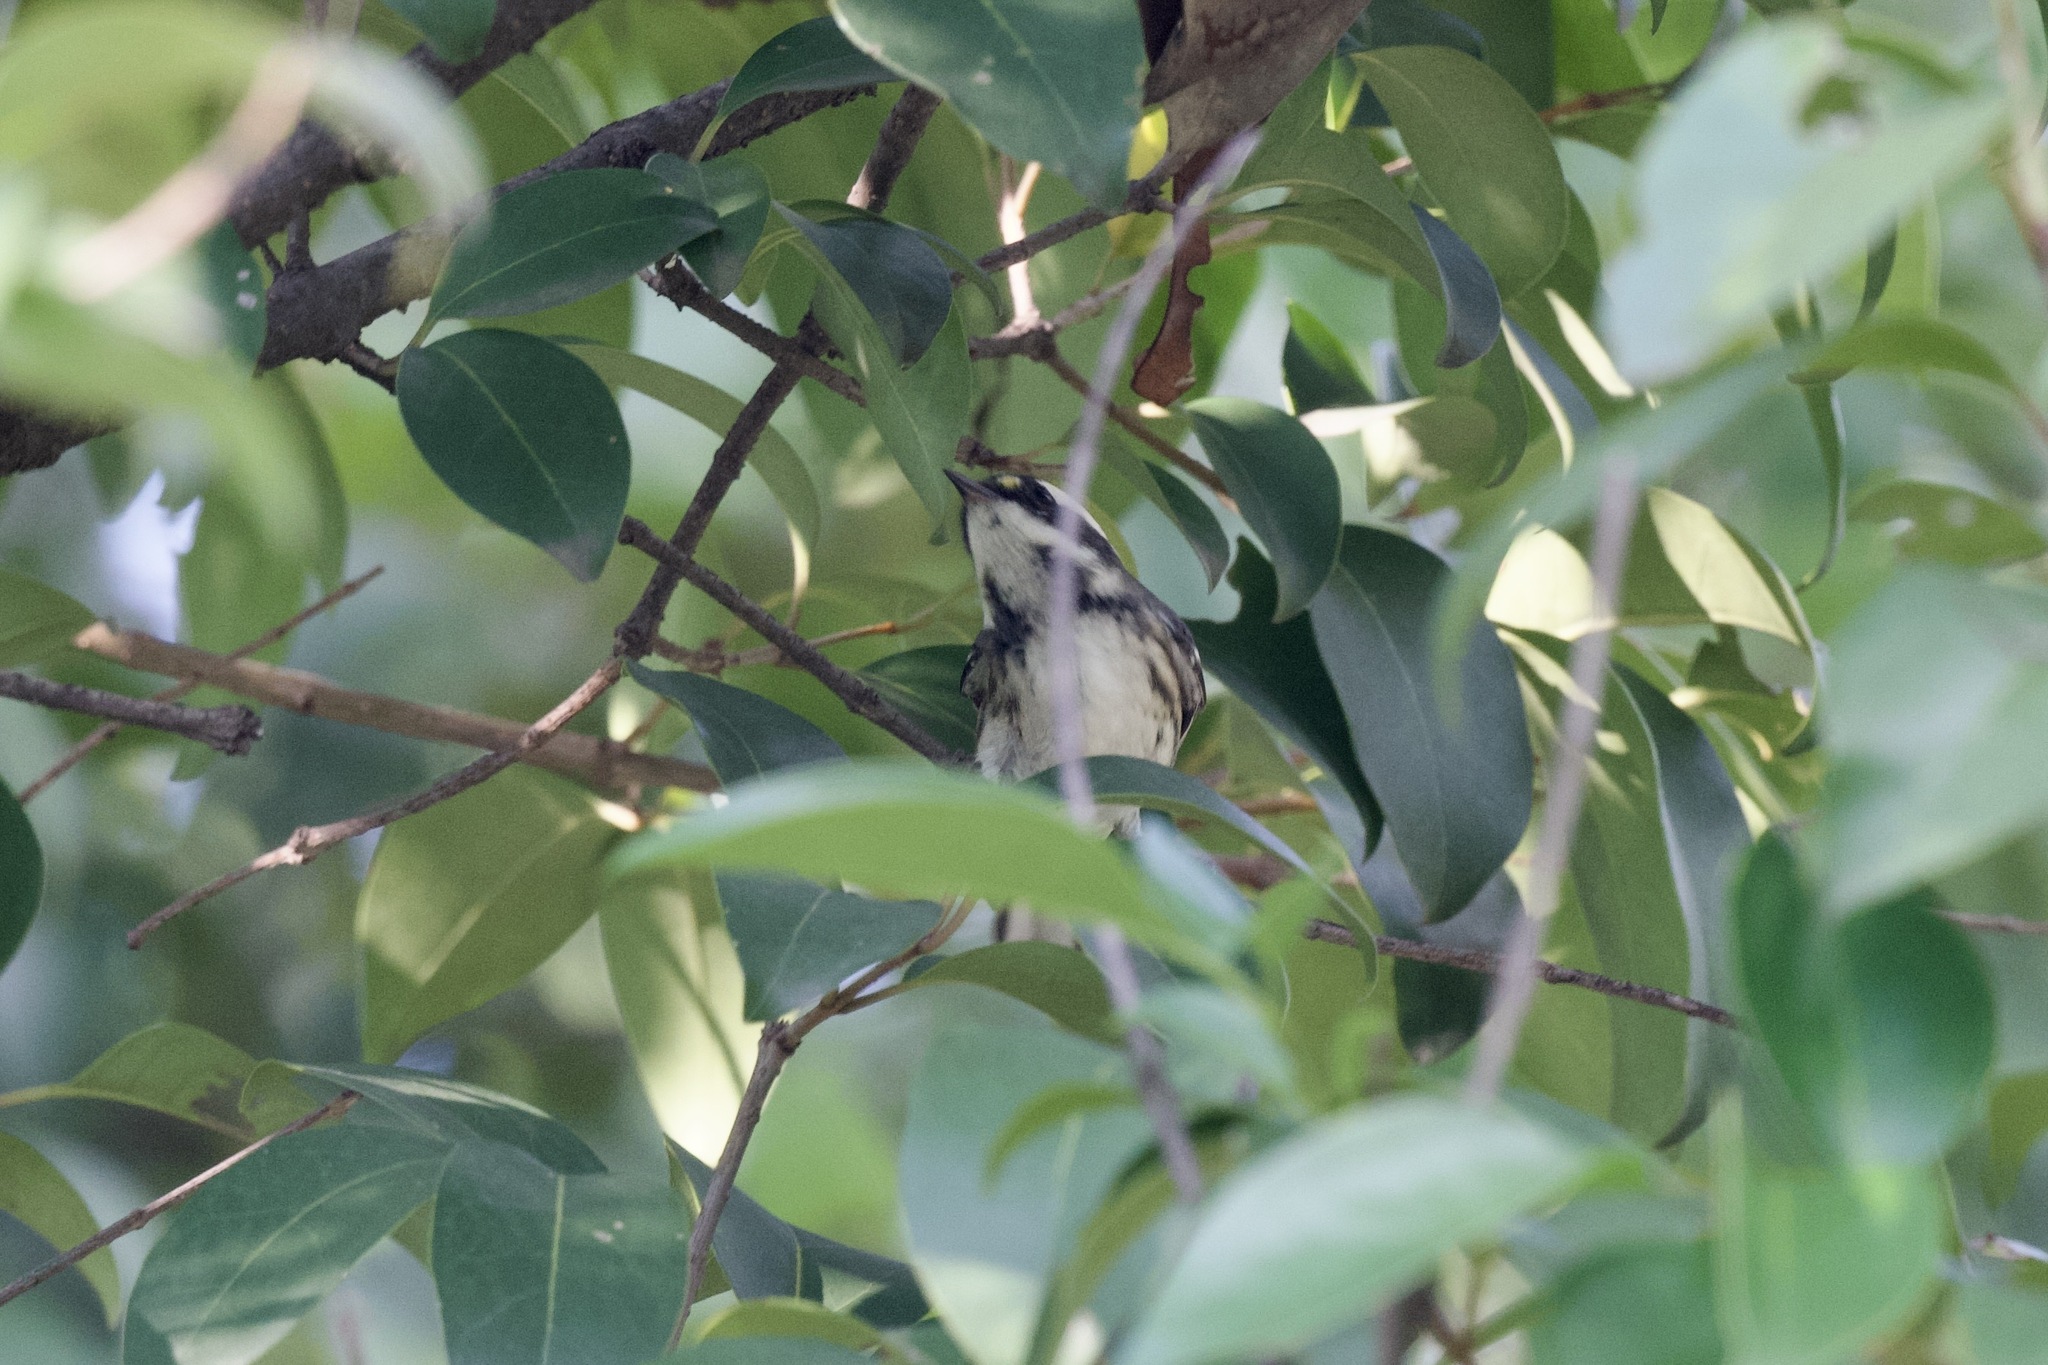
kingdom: Animalia
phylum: Chordata
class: Aves
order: Passeriformes
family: Parulidae
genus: Setophaga
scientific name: Setophaga nigrescens
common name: Black-throated gray warbler
